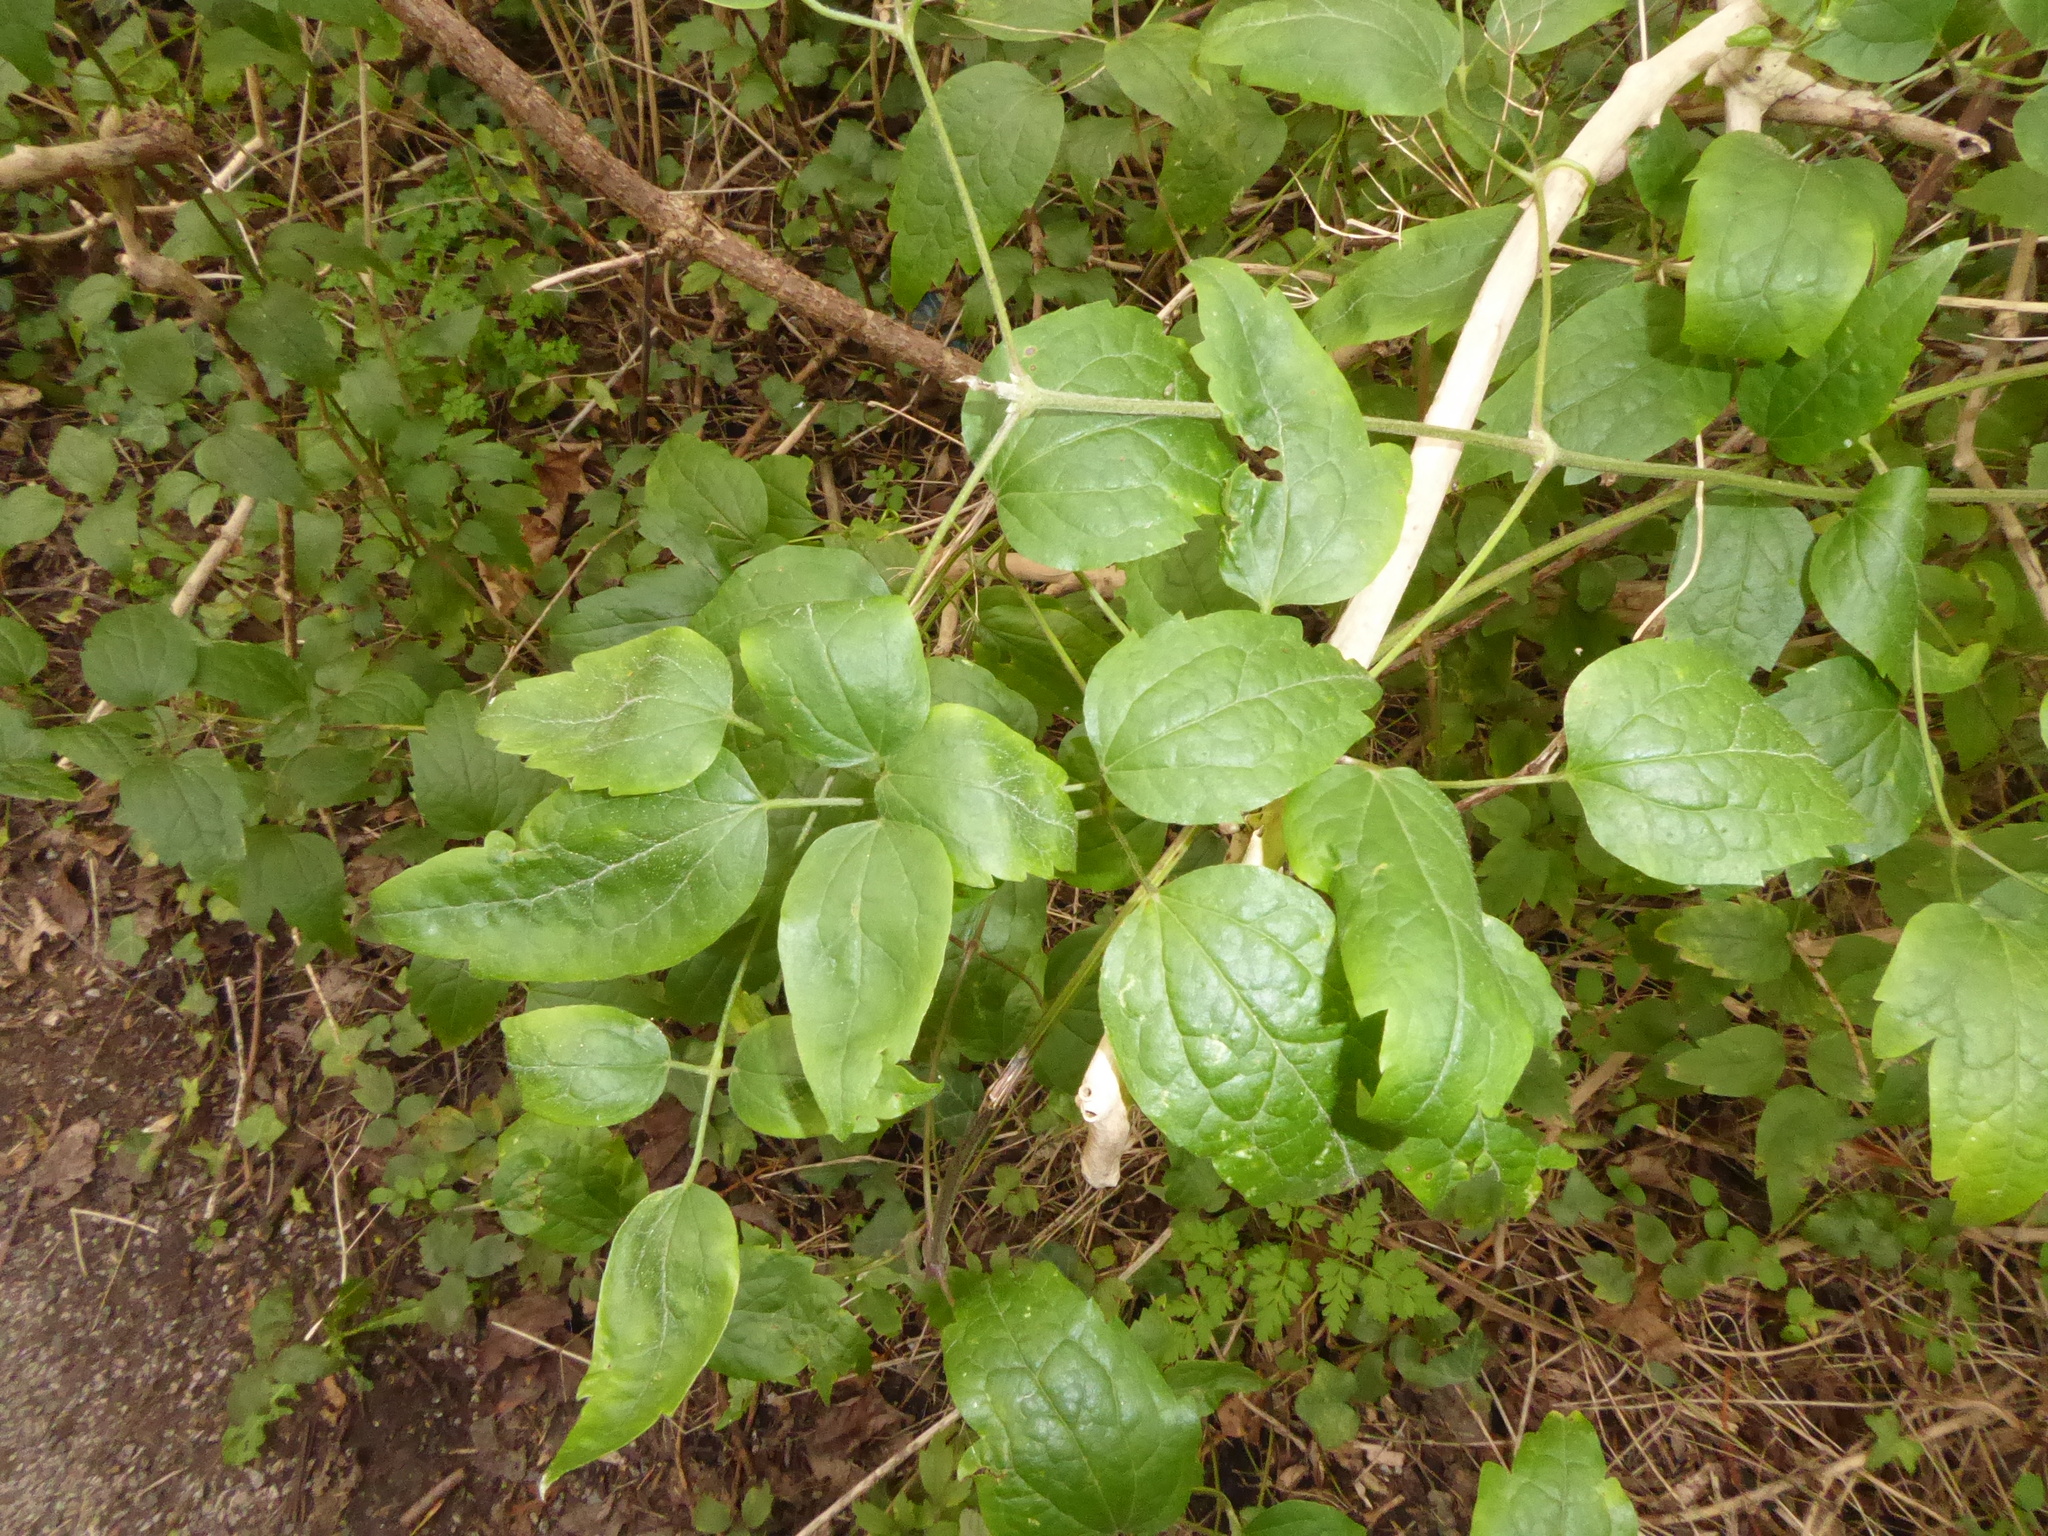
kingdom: Plantae
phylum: Tracheophyta
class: Magnoliopsida
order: Ranunculales
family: Ranunculaceae
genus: Clematis
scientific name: Clematis vitalba
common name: Evergreen clematis
